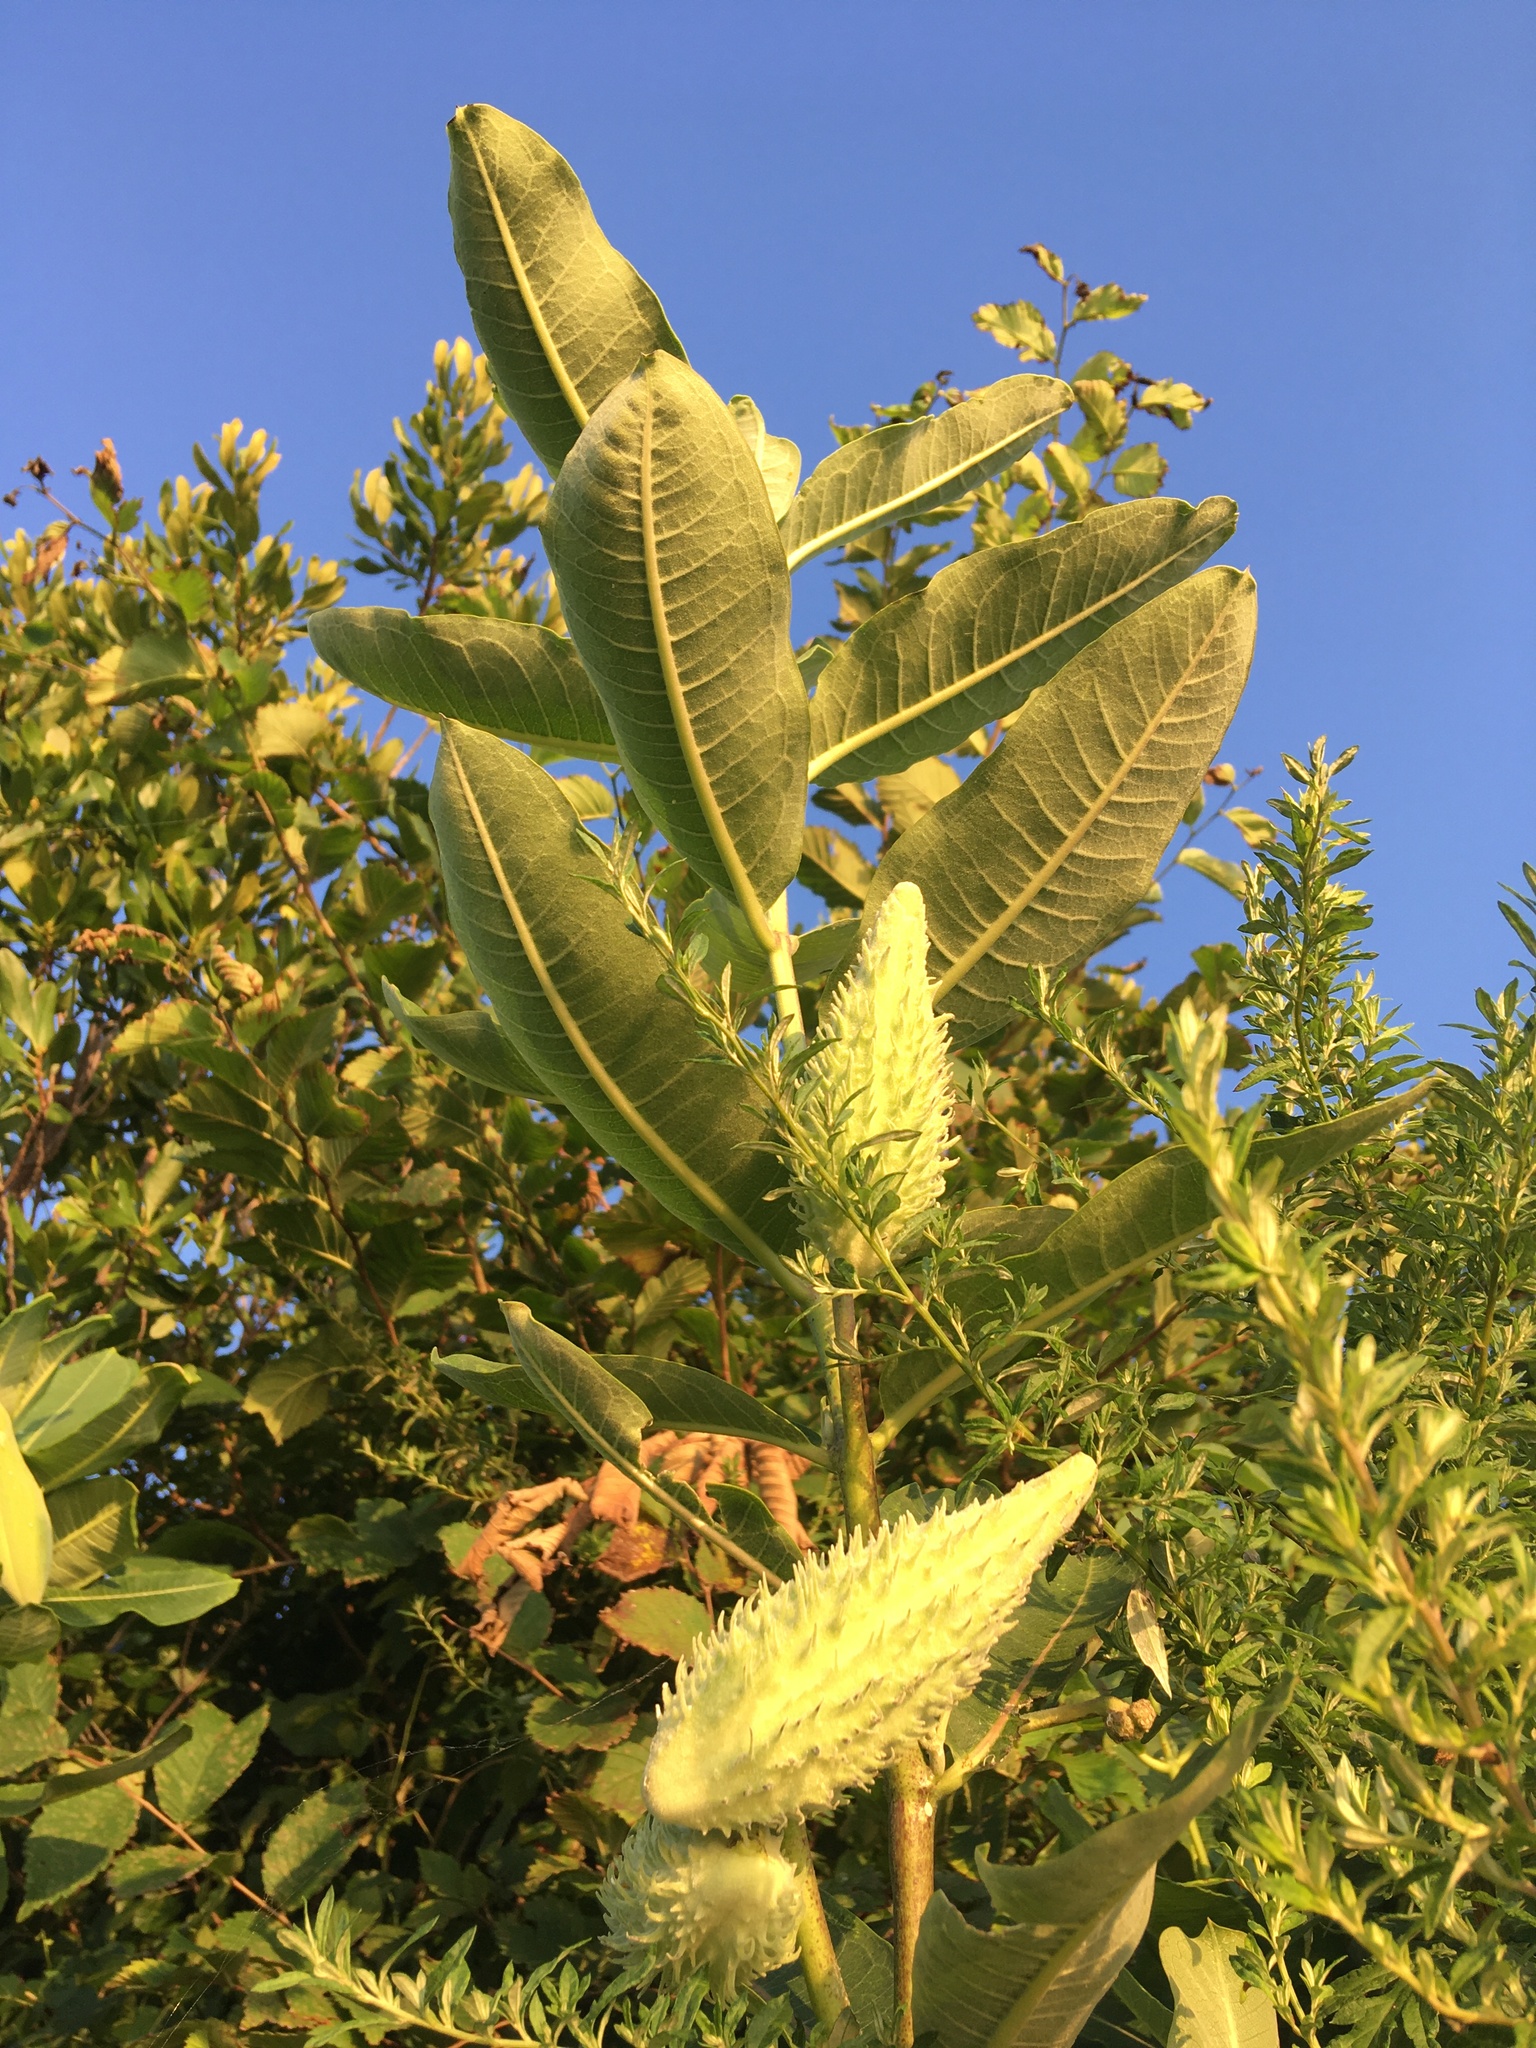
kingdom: Plantae
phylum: Tracheophyta
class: Magnoliopsida
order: Gentianales
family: Apocynaceae
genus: Asclepias
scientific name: Asclepias syriaca
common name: Common milkweed
